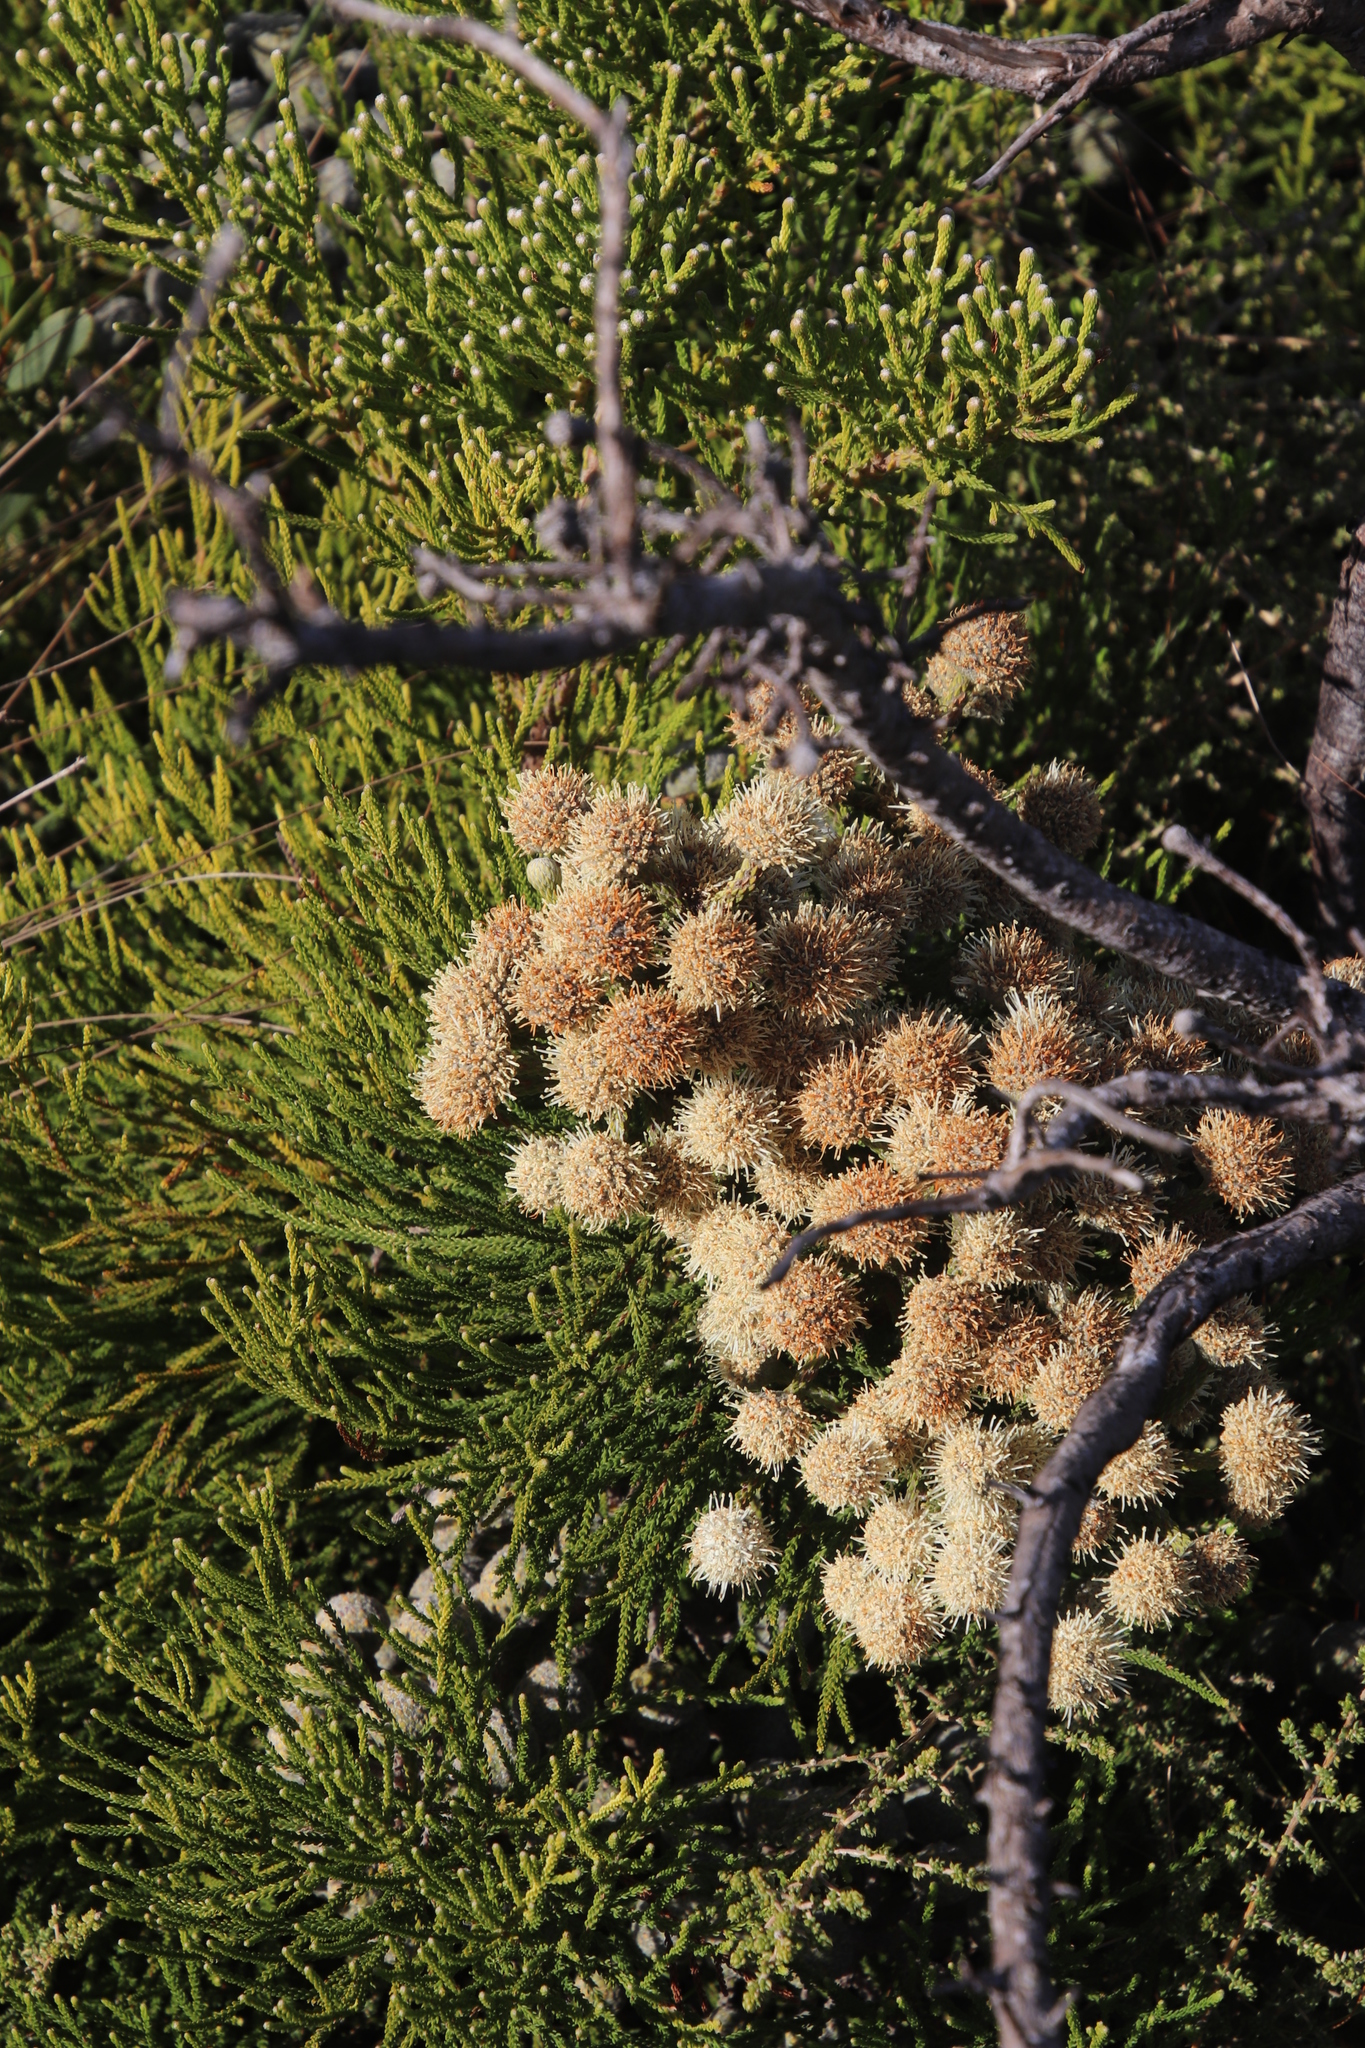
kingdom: Plantae
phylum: Tracheophyta
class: Magnoliopsida
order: Bruniales
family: Bruniaceae
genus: Brunia
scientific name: Brunia noduliflora
